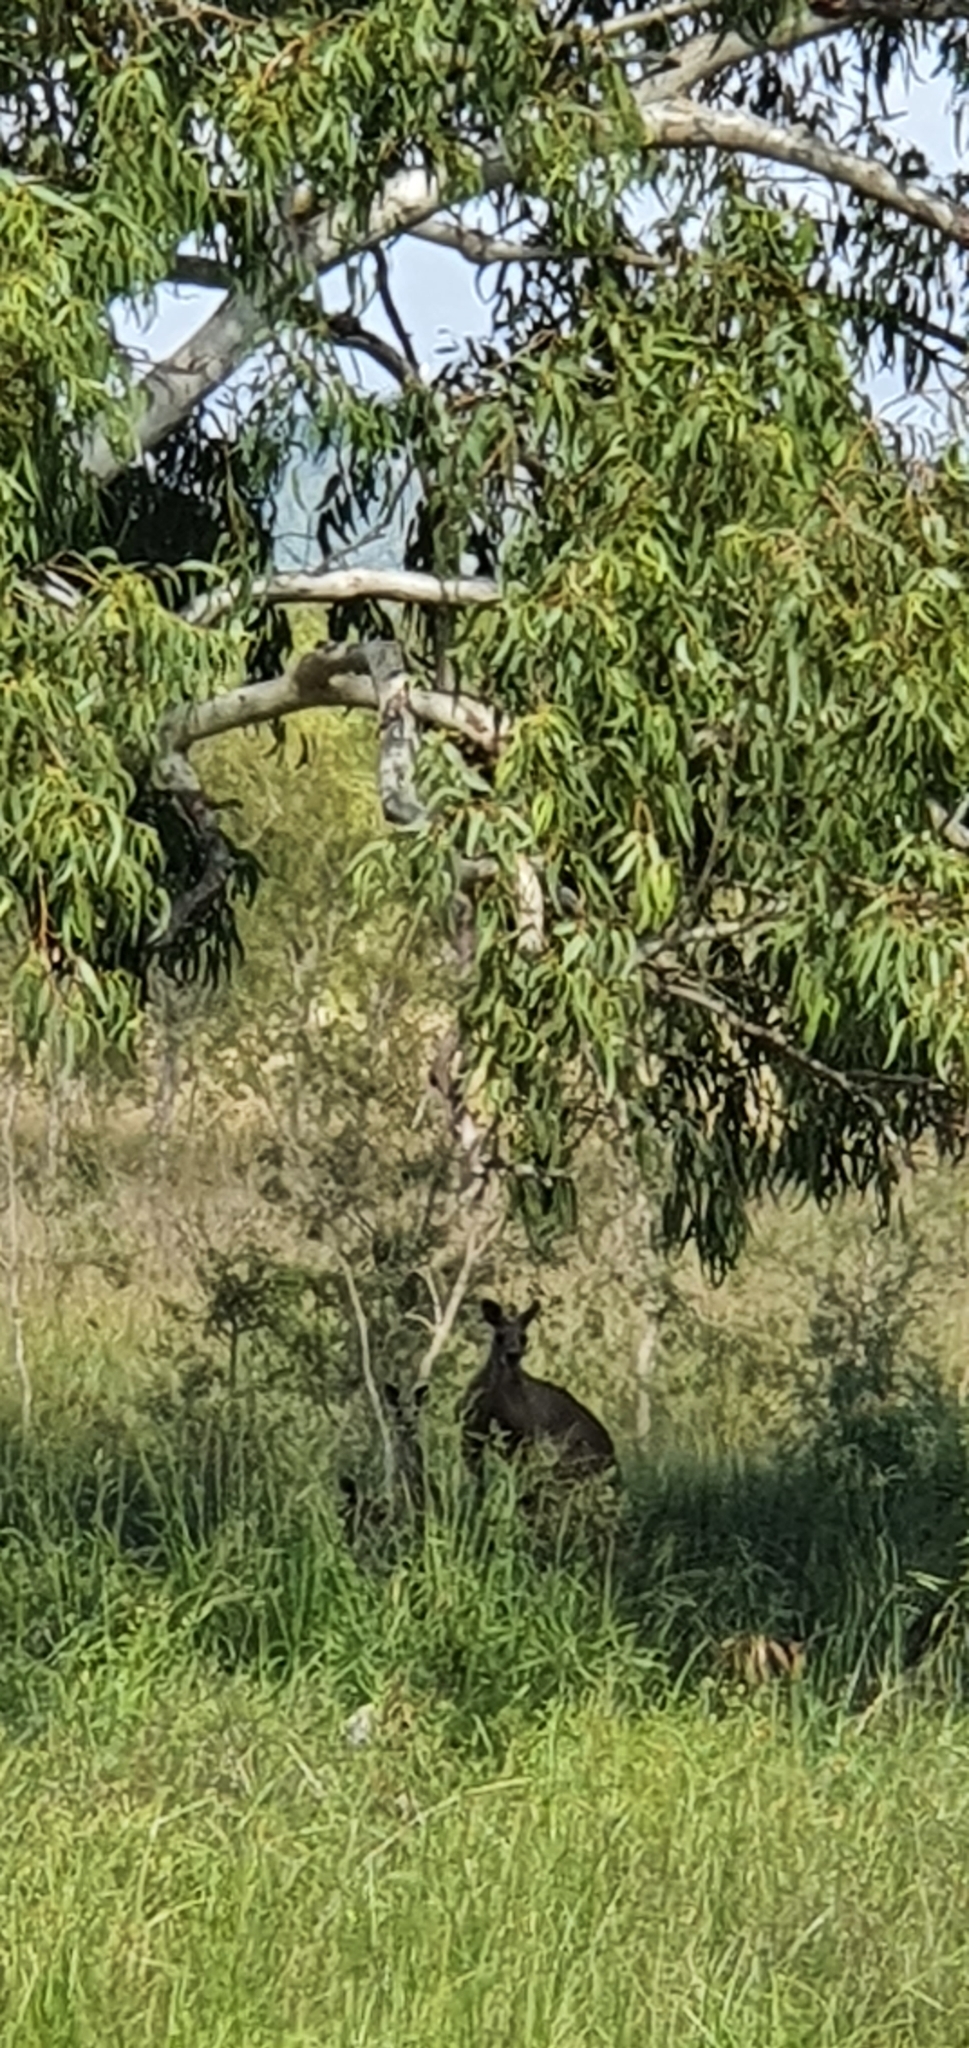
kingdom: Animalia
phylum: Chordata
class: Mammalia
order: Diprotodontia
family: Macropodidae
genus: Macropus
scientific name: Macropus giganteus
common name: Eastern grey kangaroo
